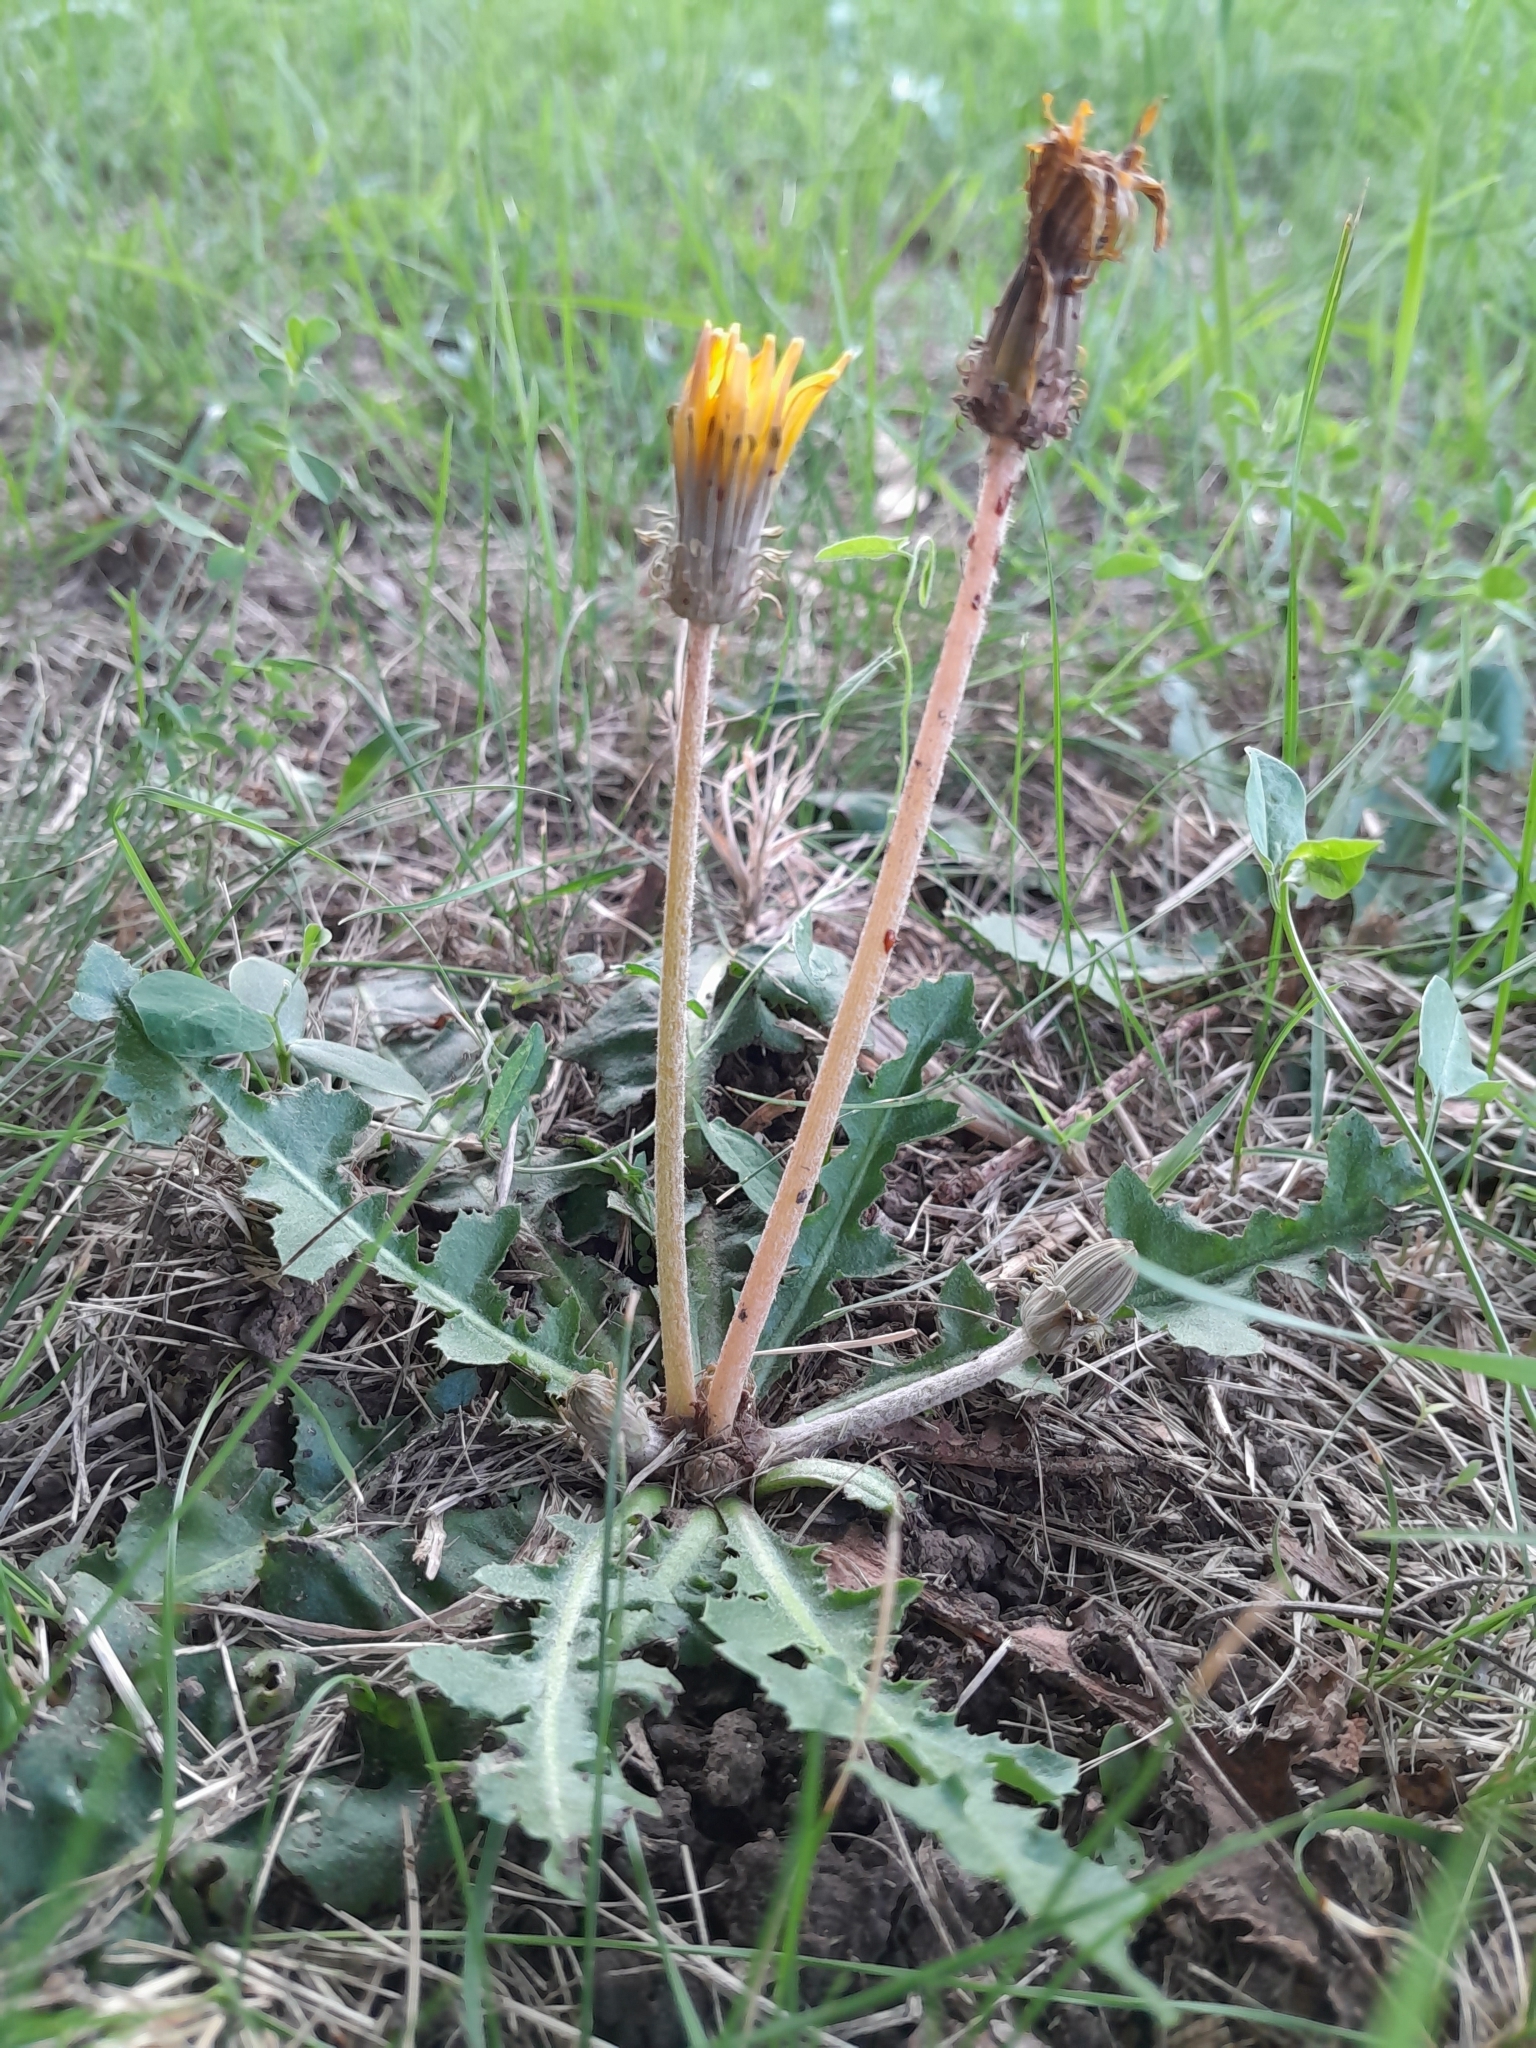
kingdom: Plantae
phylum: Tracheophyta
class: Magnoliopsida
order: Asterales
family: Asteraceae
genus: Taraxacum
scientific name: Taraxacum serotinum
